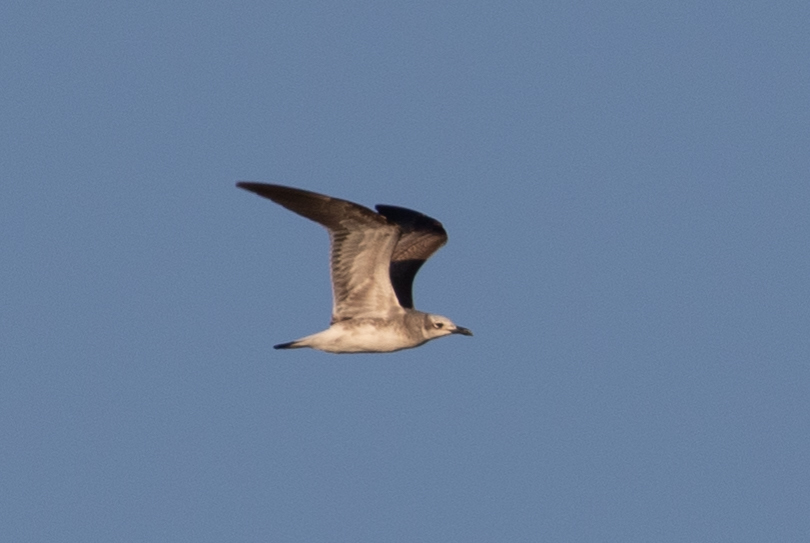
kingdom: Animalia
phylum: Chordata
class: Aves
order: Charadriiformes
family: Laridae
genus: Leucophaeus
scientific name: Leucophaeus atricilla
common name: Laughing gull
